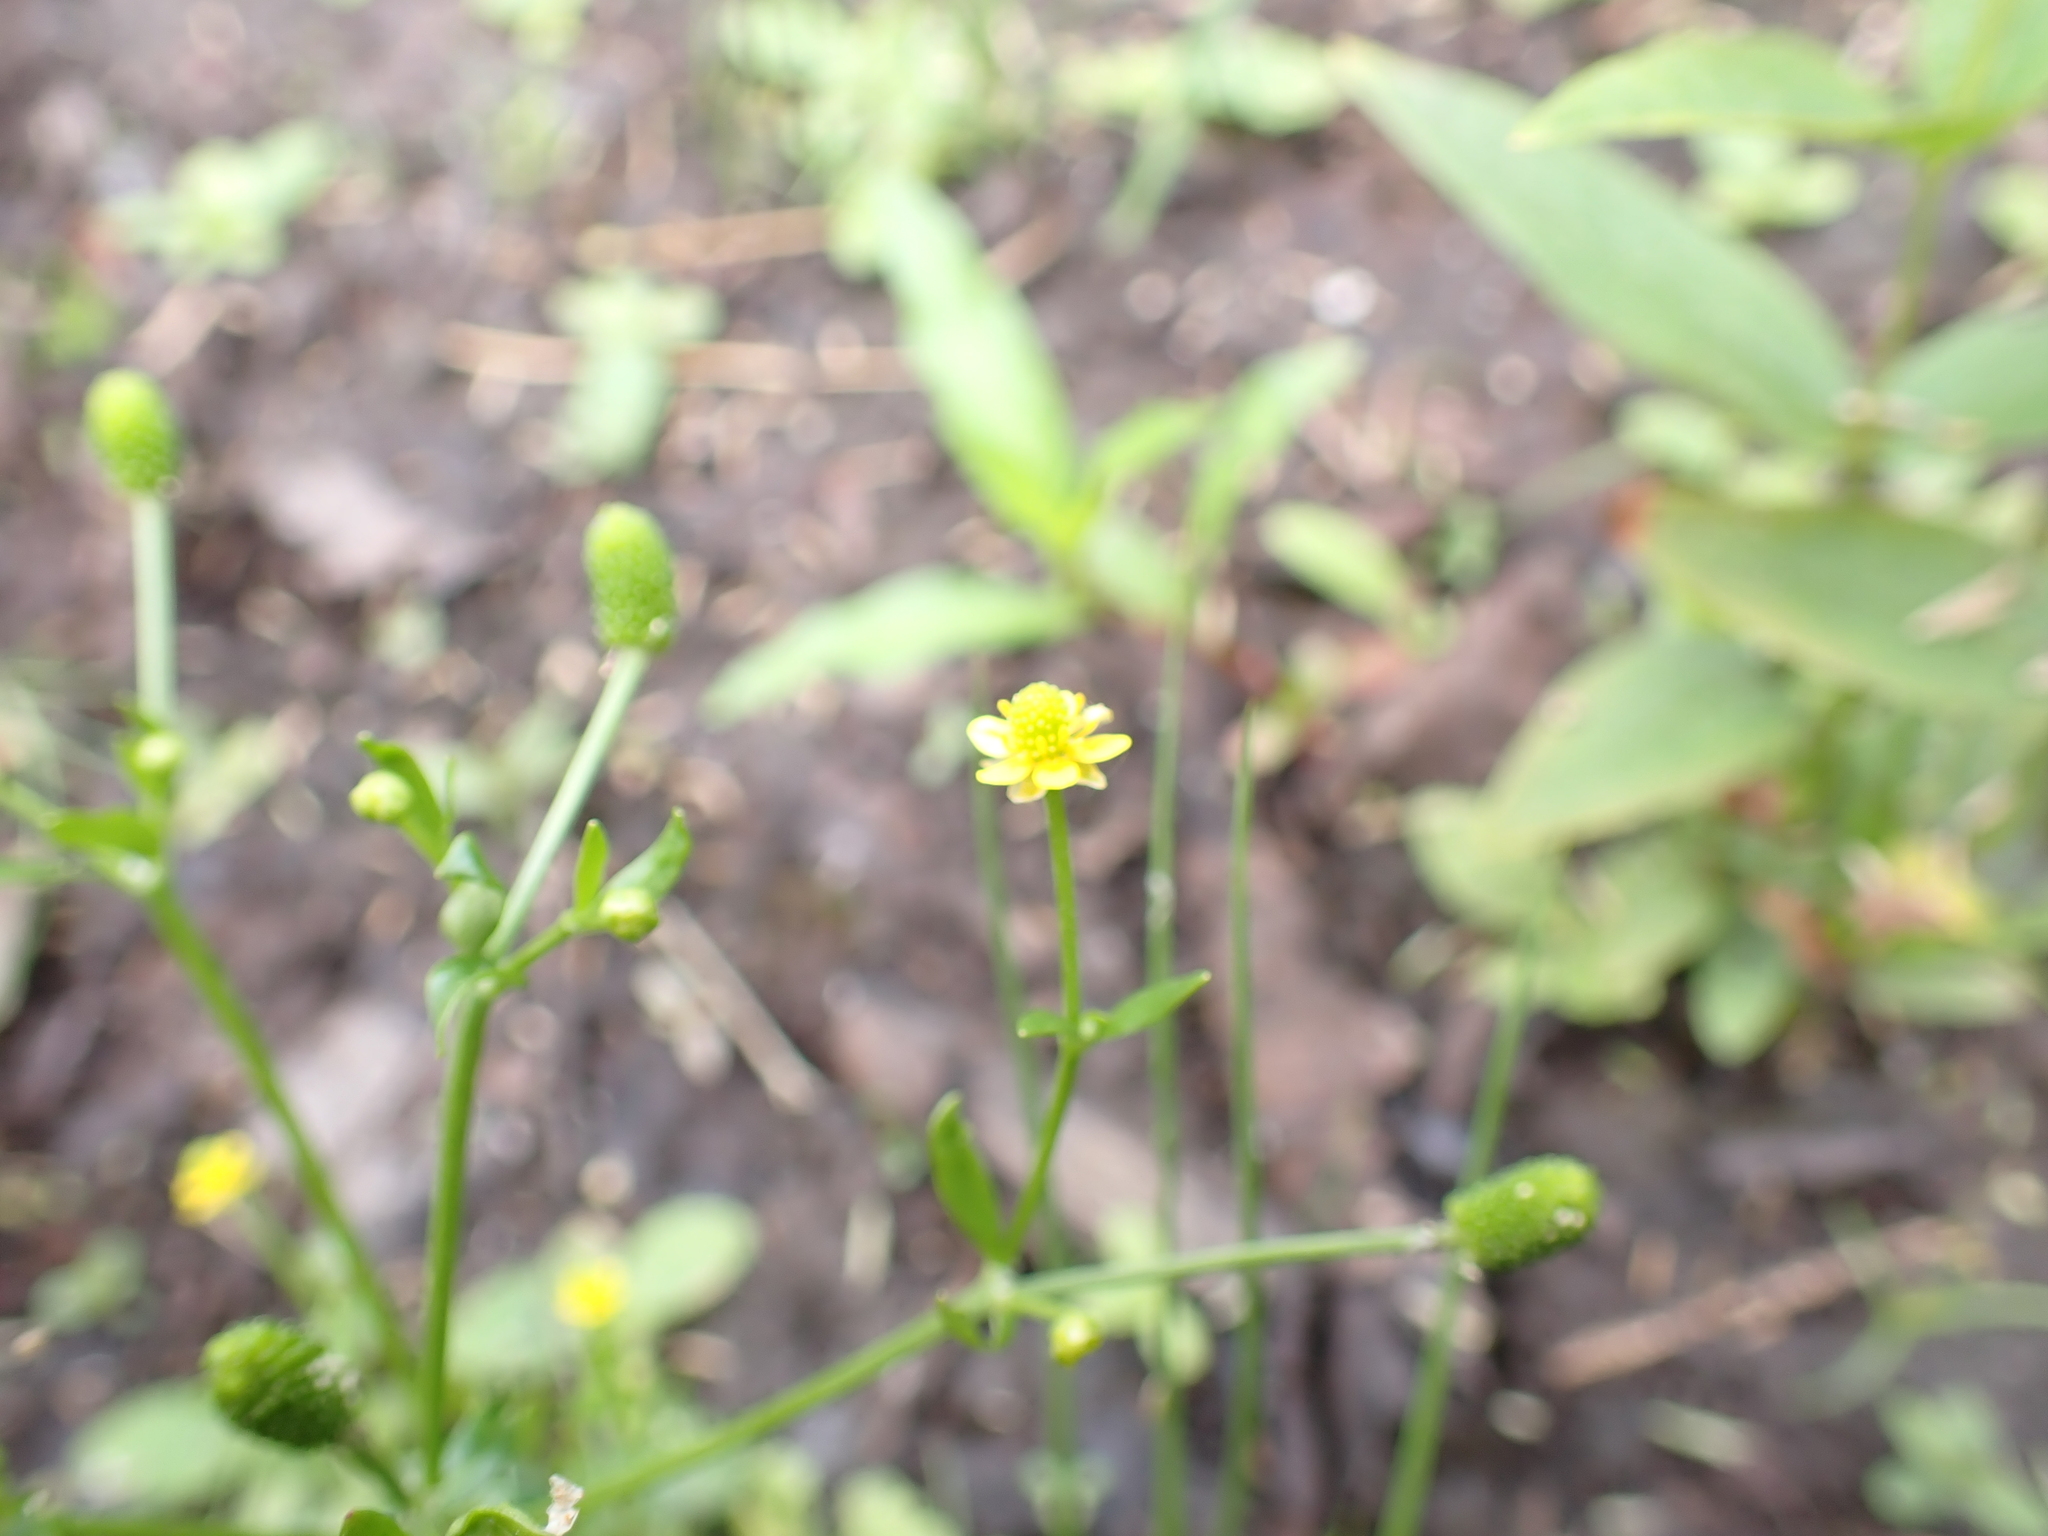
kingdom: Plantae
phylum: Tracheophyta
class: Magnoliopsida
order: Ranunculales
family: Ranunculaceae
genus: Ranunculus
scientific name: Ranunculus sceleratus
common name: Celery-leaved buttercup
